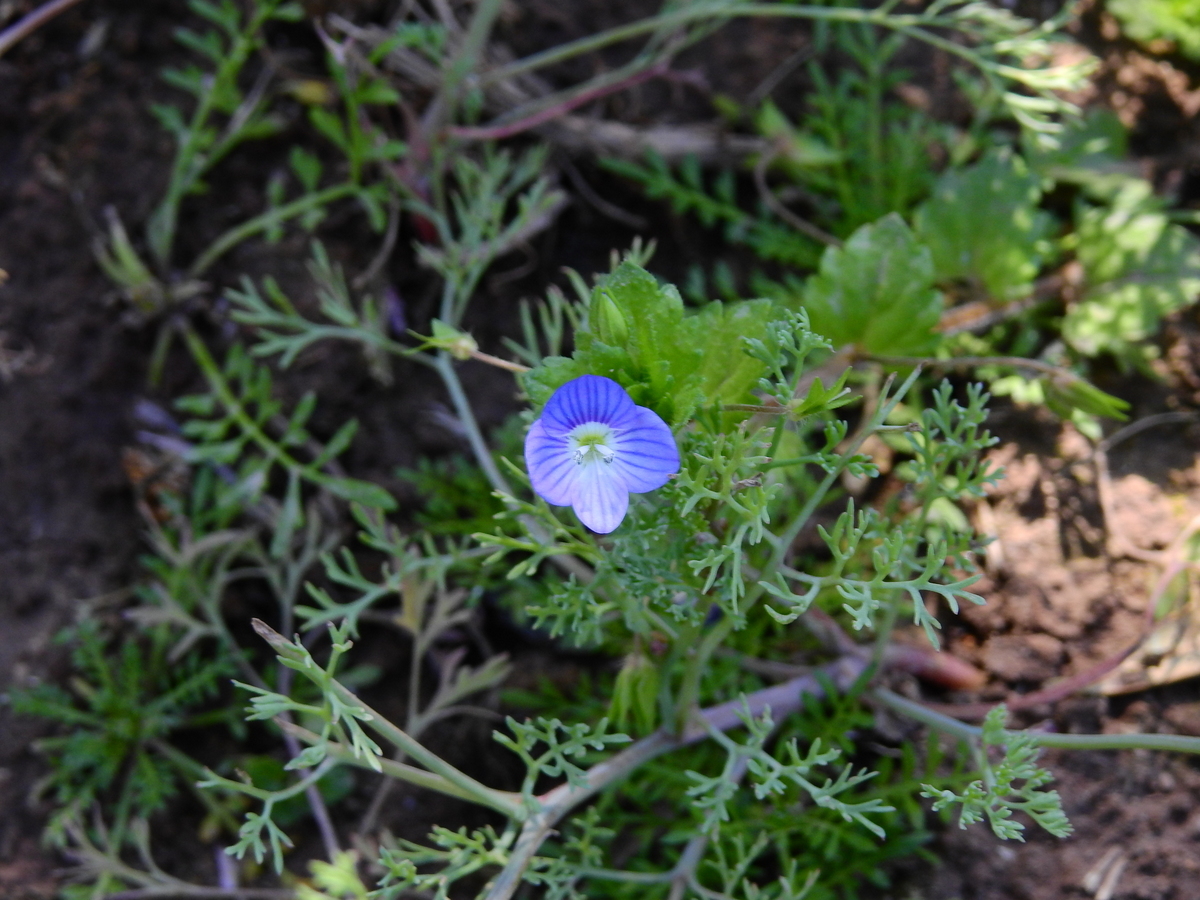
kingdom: Plantae
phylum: Tracheophyta
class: Magnoliopsida
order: Lamiales
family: Plantaginaceae
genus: Veronica
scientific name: Veronica persica
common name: Common field-speedwell
